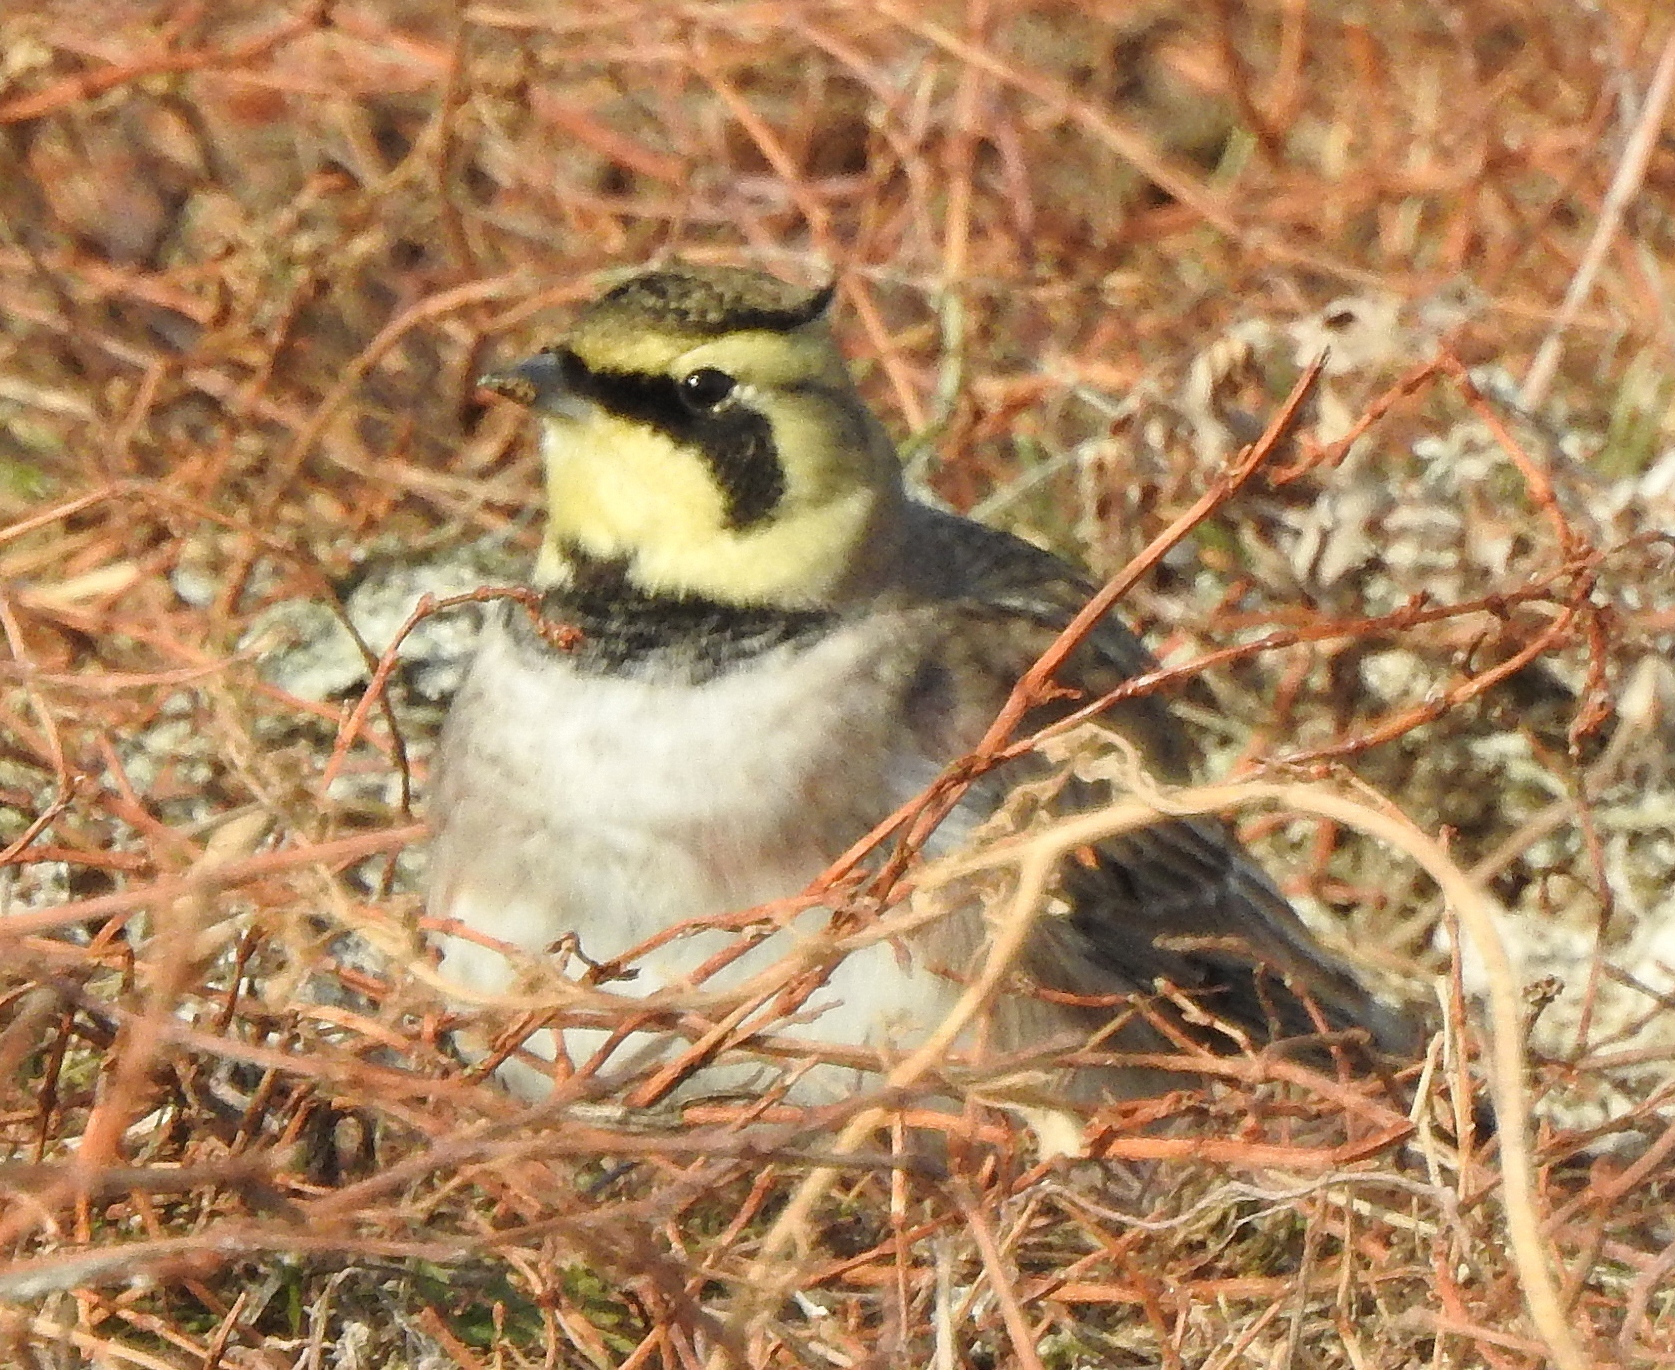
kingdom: Animalia
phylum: Chordata
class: Aves
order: Passeriformes
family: Alaudidae
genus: Eremophila
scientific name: Eremophila alpestris
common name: Horned lark
